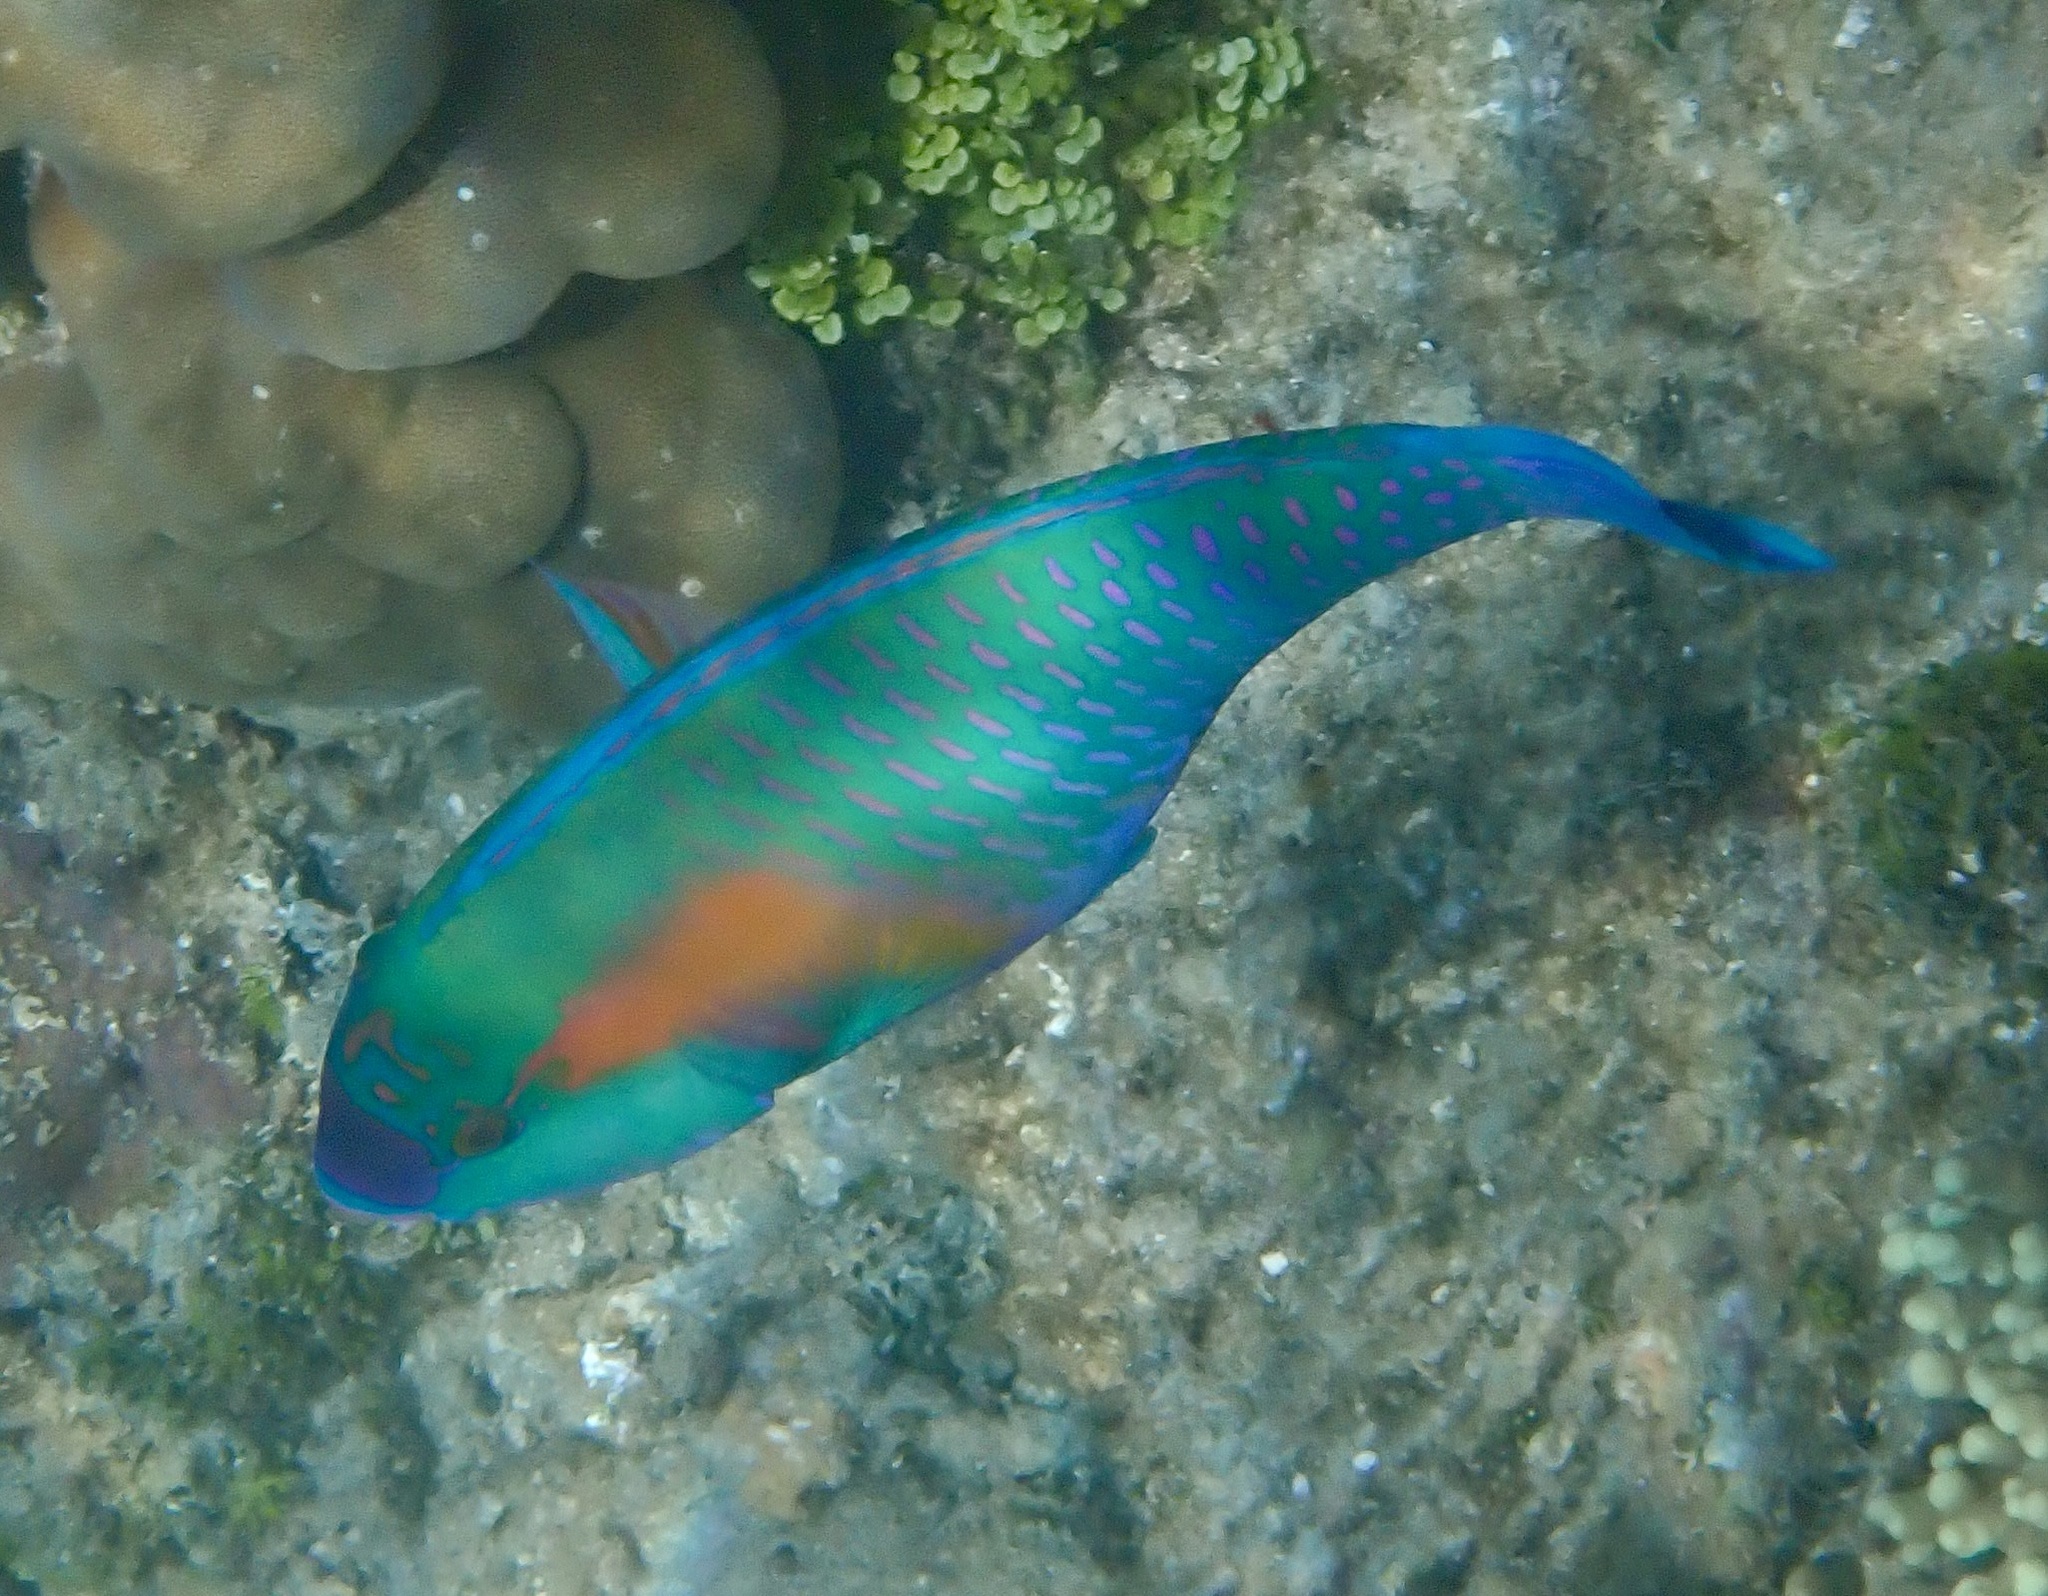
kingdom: Animalia
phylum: Chordata
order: Perciformes
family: Scaridae
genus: Chlorurus
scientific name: Chlorurus bowersi
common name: Bower's parrotfish
